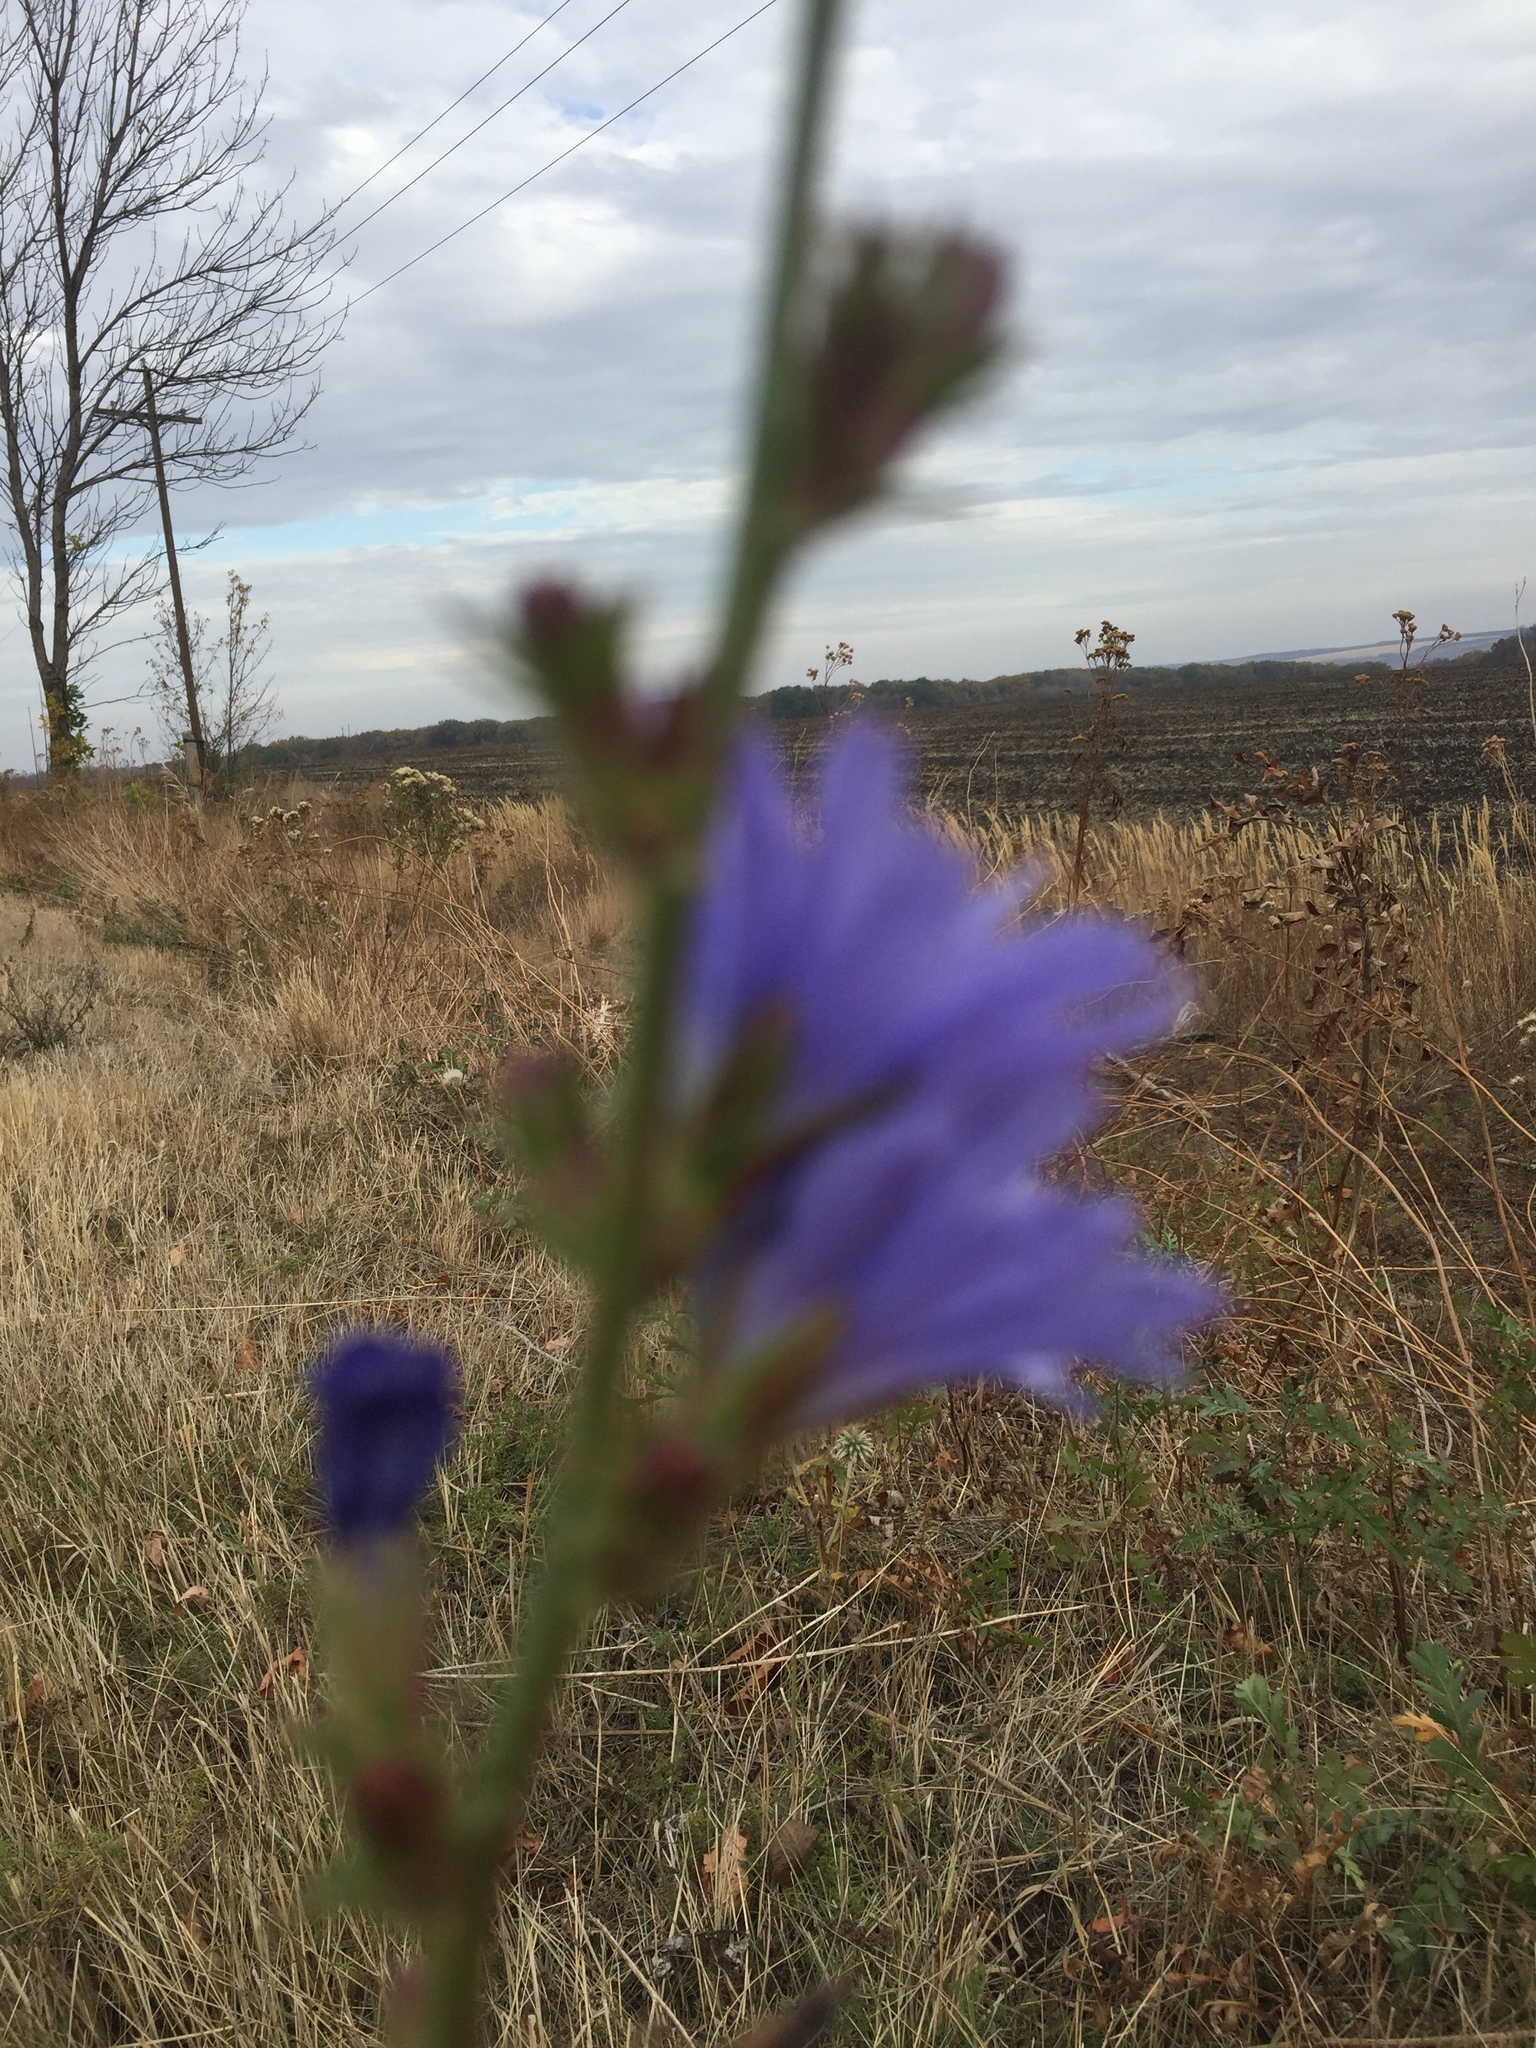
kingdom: Plantae
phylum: Tracheophyta
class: Magnoliopsida
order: Asterales
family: Asteraceae
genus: Cichorium
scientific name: Cichorium intybus
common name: Chicory
